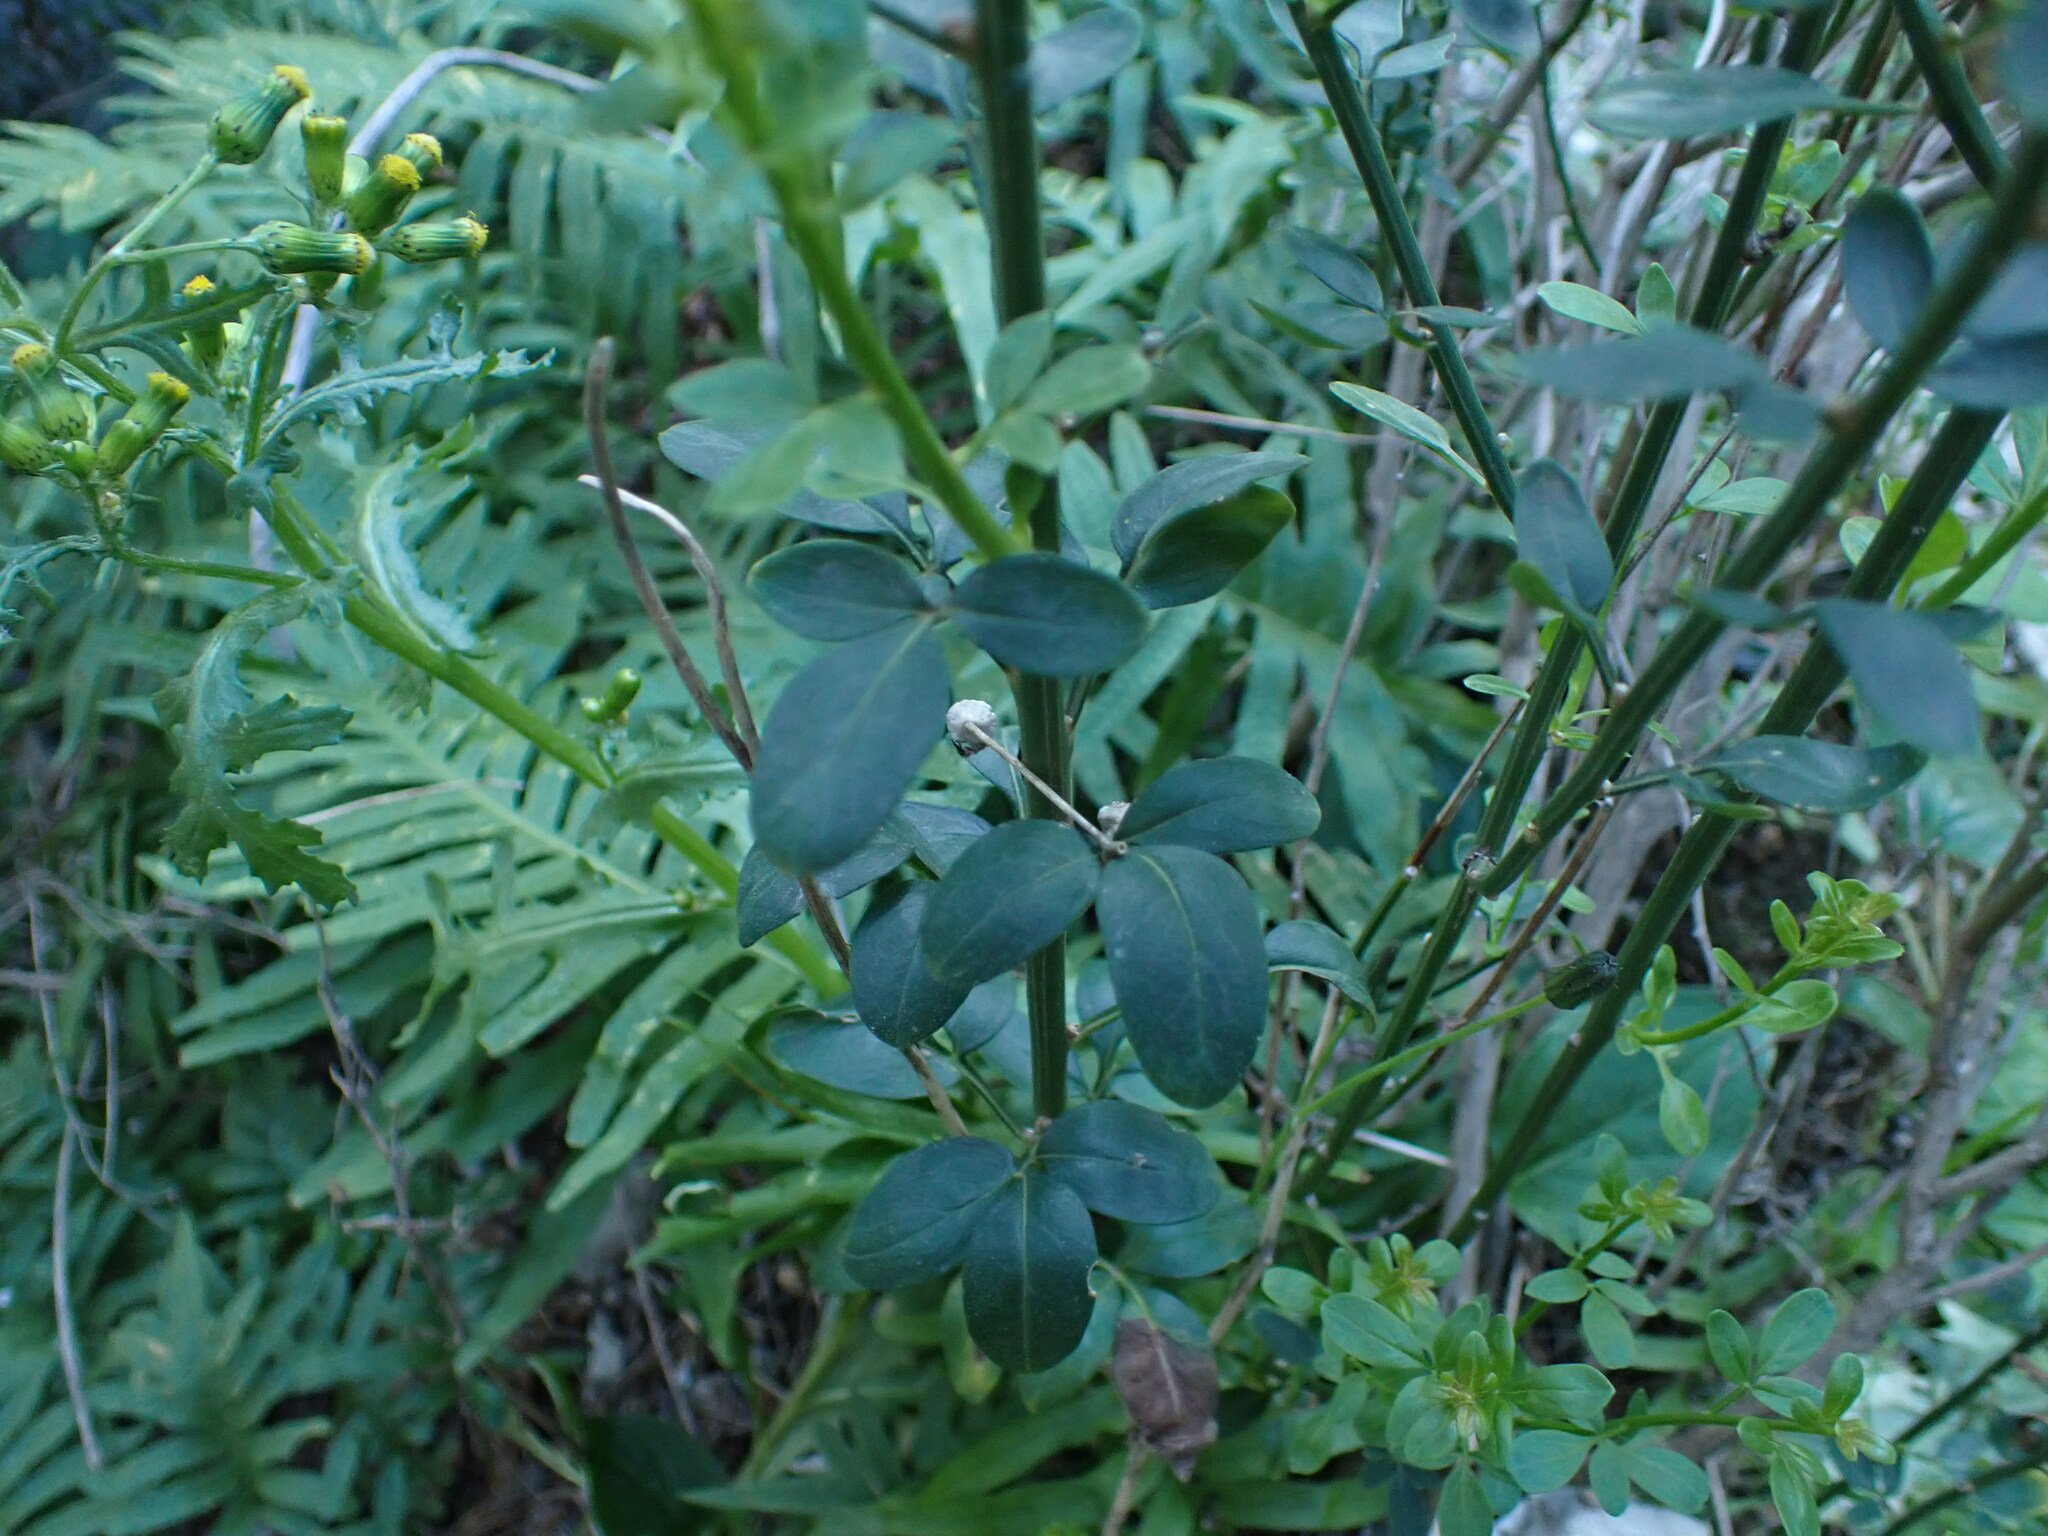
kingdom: Plantae
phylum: Tracheophyta
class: Magnoliopsida
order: Lamiales
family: Oleaceae
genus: Chrysojasminum
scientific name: Chrysojasminum fruticans
